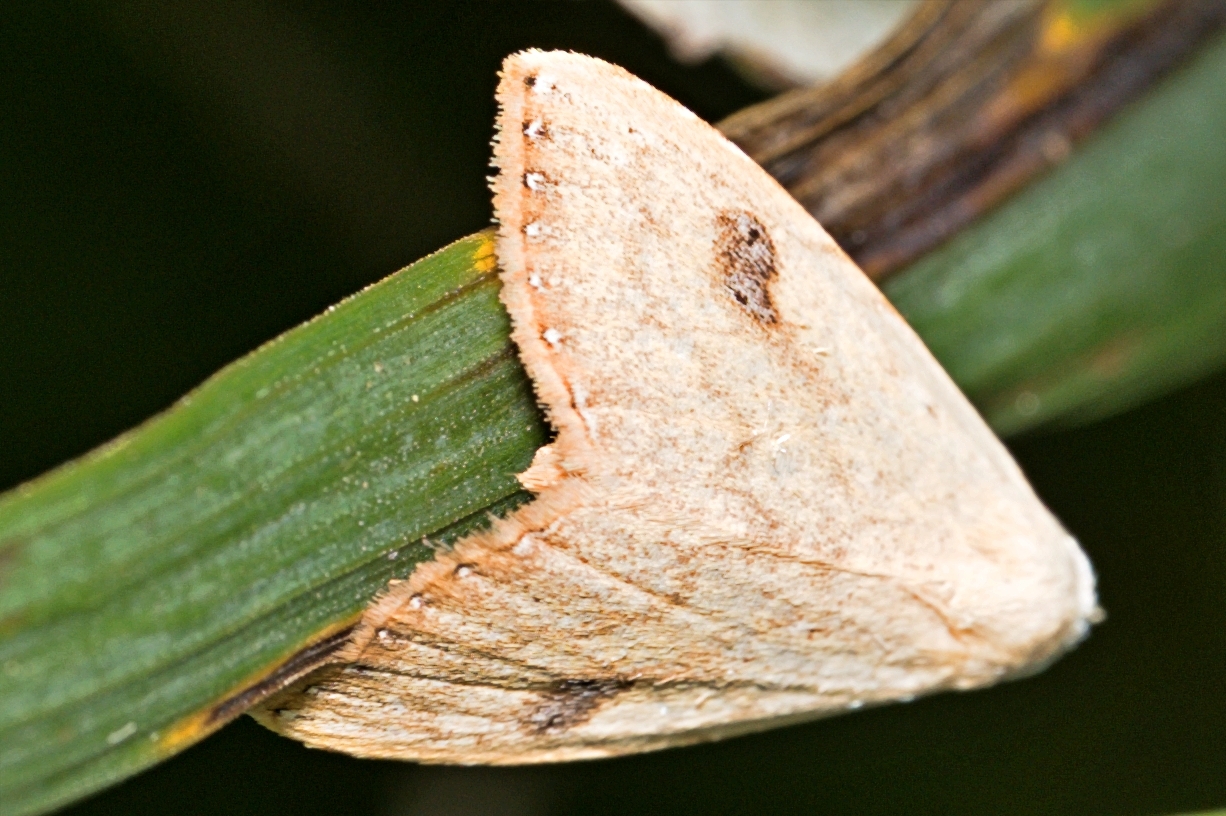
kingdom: Animalia
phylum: Arthropoda
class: Insecta
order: Lepidoptera
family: Erebidae
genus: Rivula
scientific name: Rivula sericealis
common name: Straw dot
